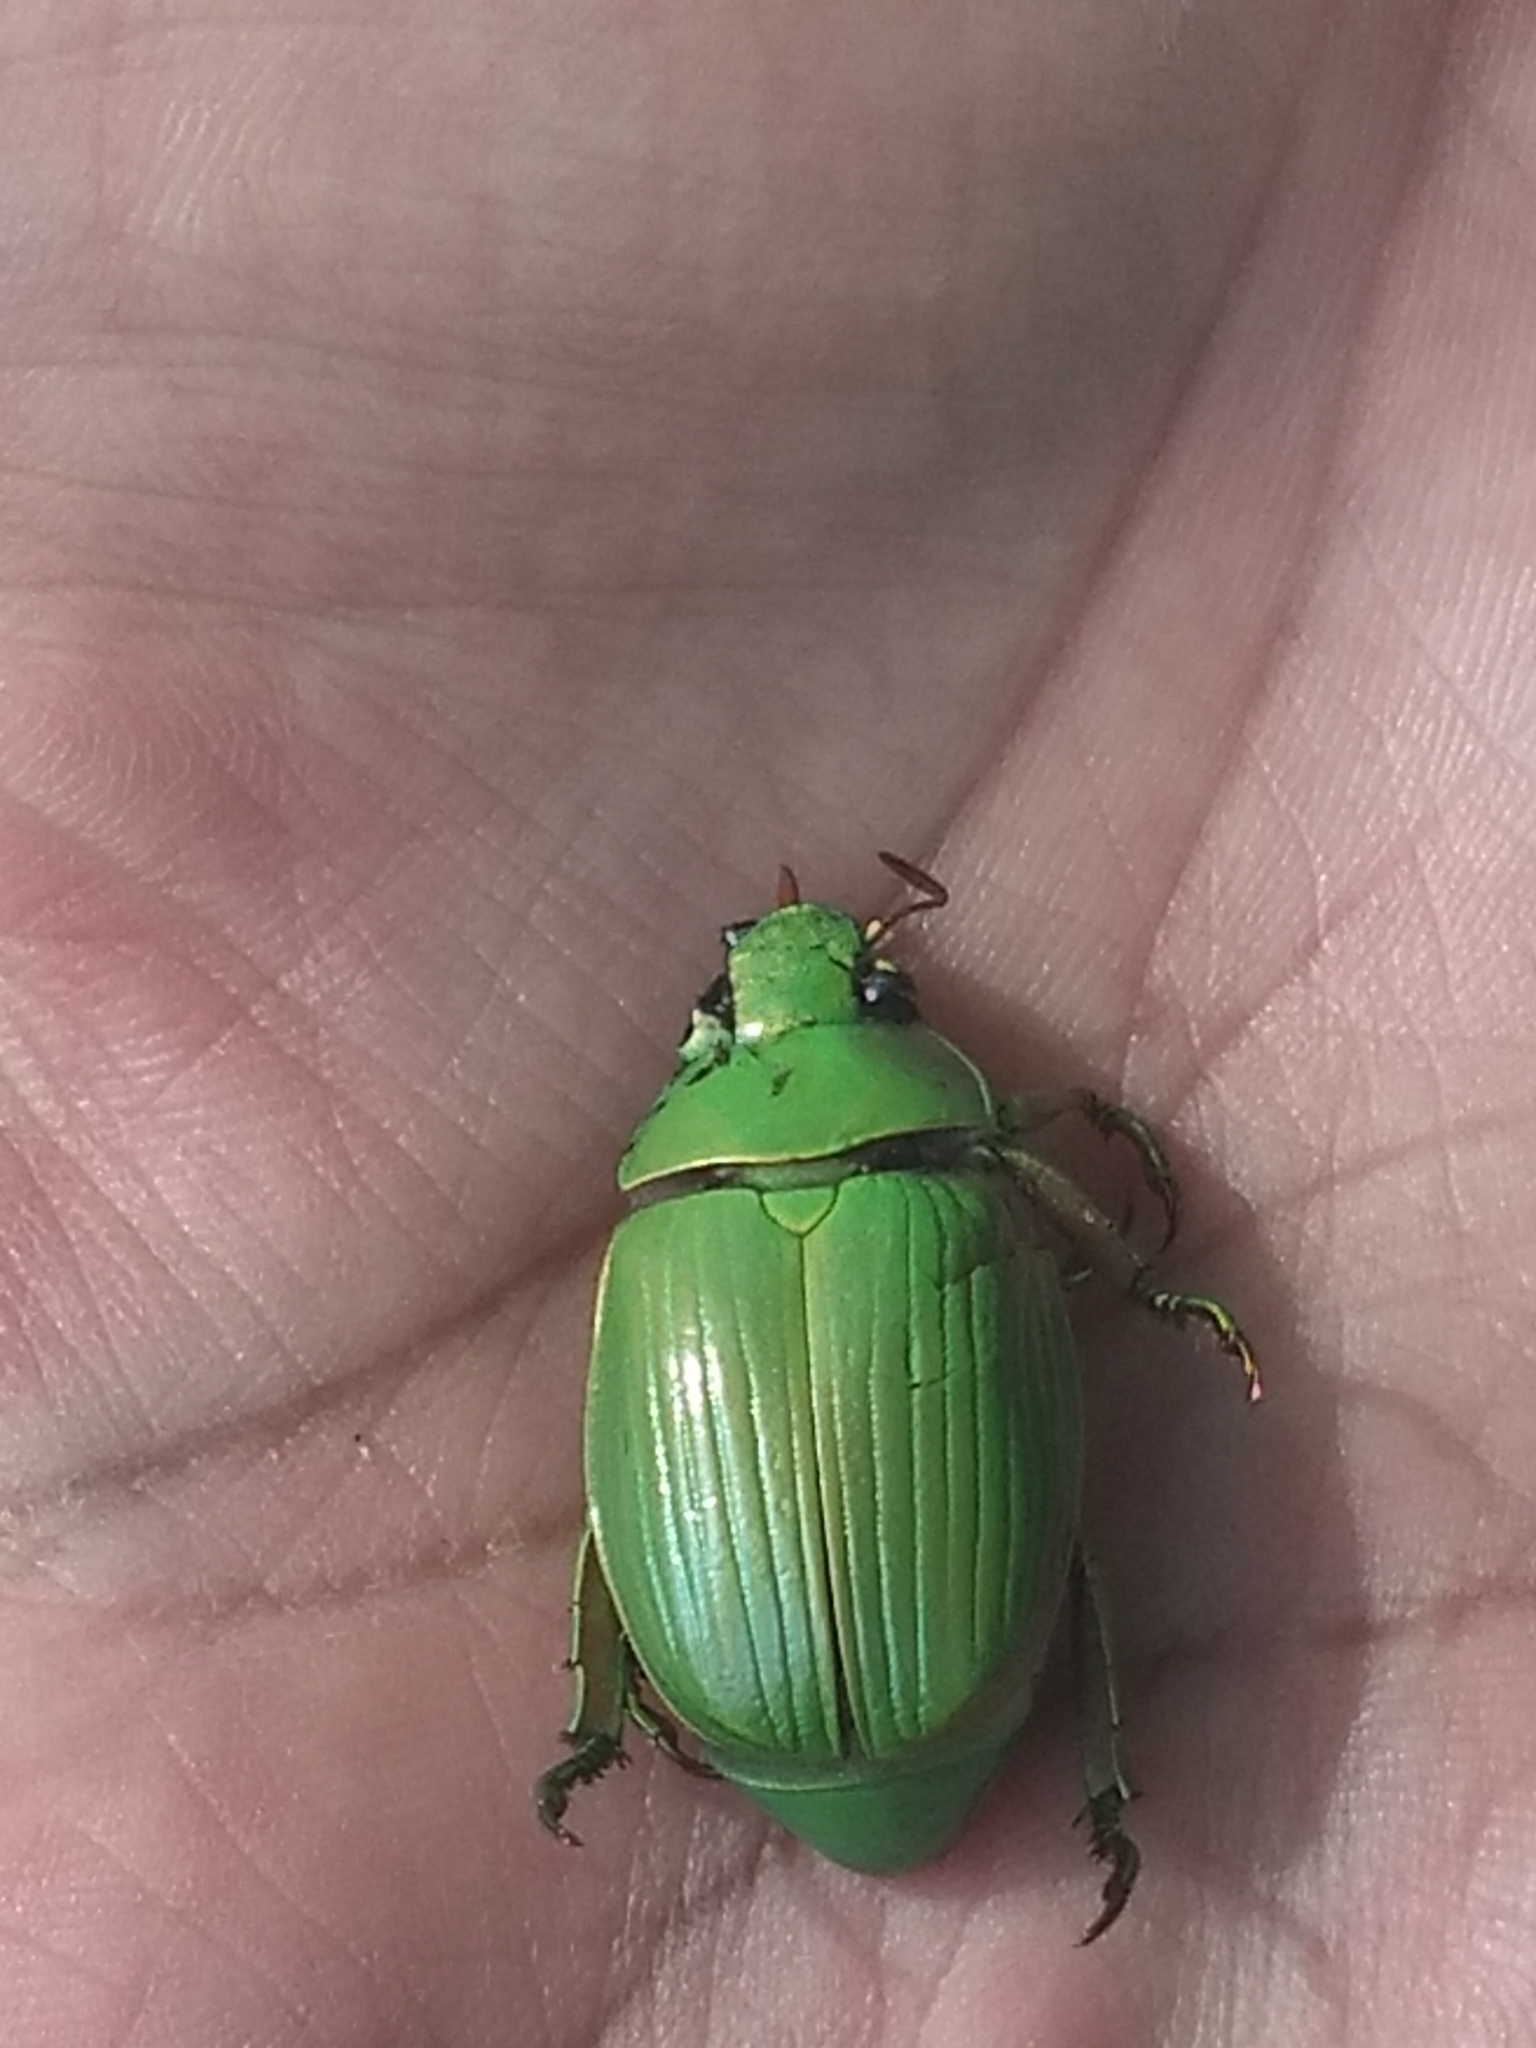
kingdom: Animalia
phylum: Arthropoda
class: Insecta
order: Coleoptera
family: Scarabaeidae
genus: Chrysina
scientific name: Chrysina costata
